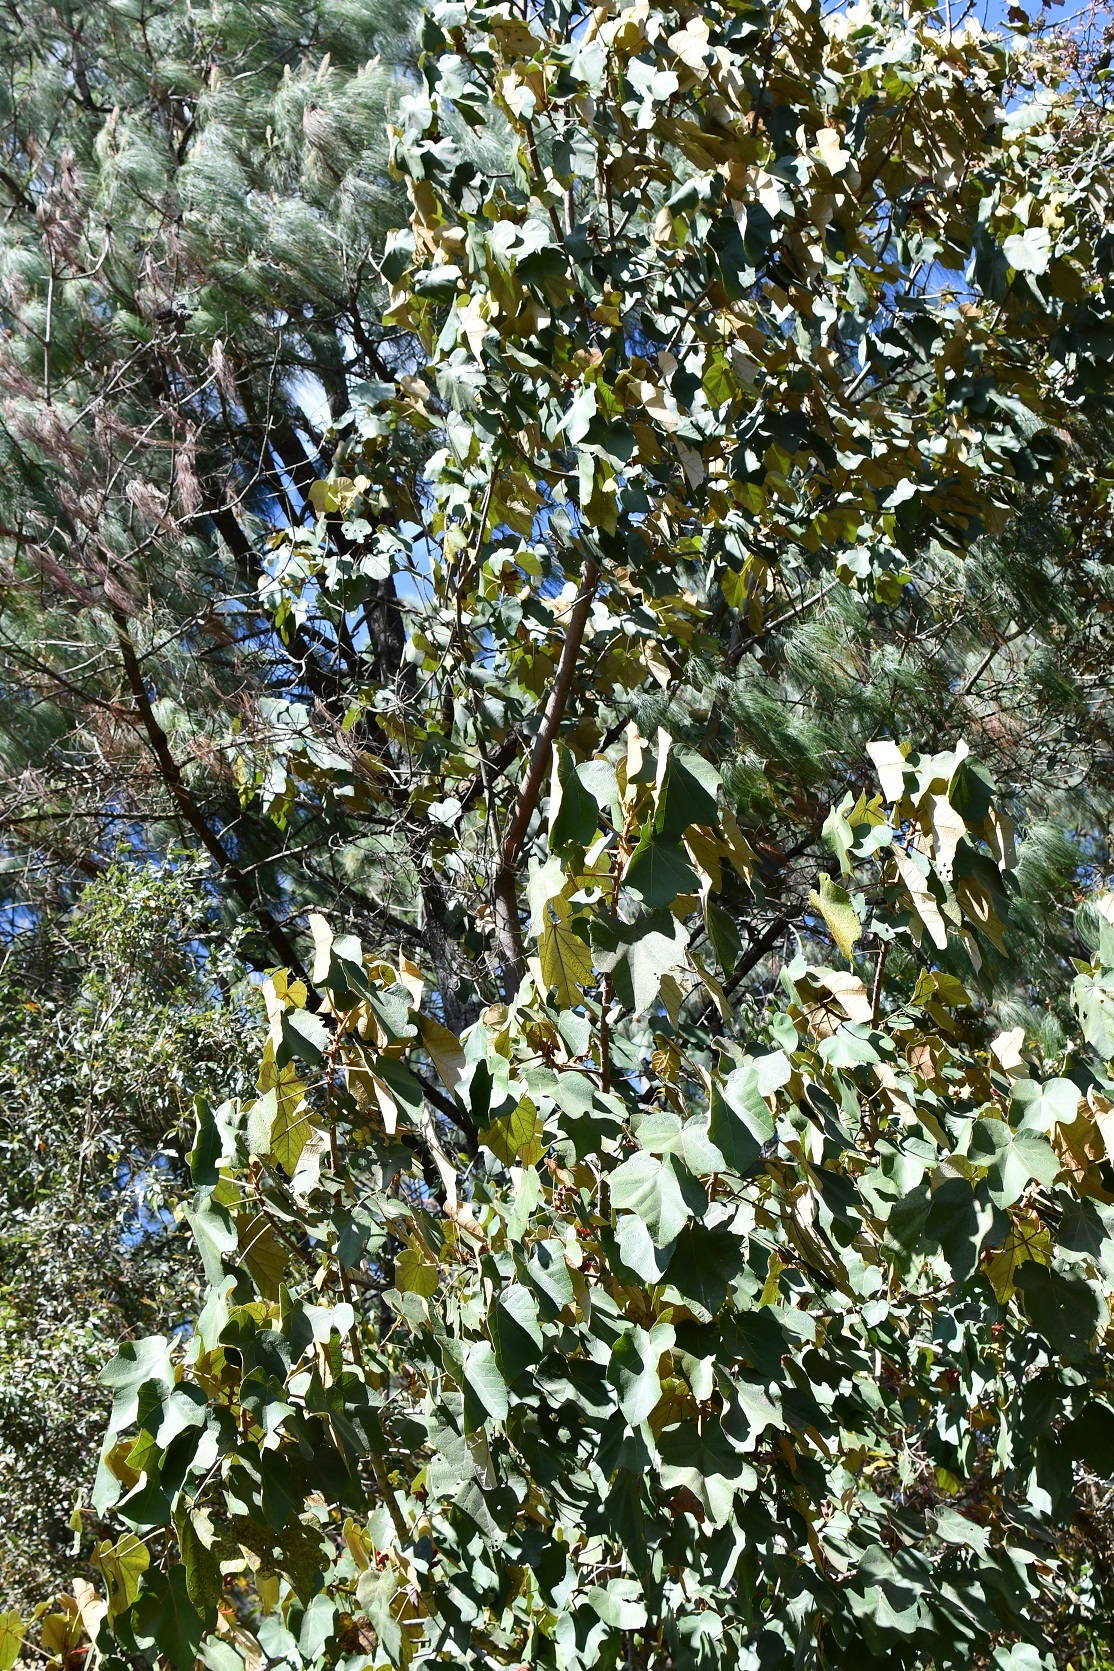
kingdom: Plantae
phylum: Tracheophyta
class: Magnoliopsida
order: Malvales
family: Malvaceae
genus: Chiranthodendron
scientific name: Chiranthodendron pentadactylon
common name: Mexican-hat-plant
